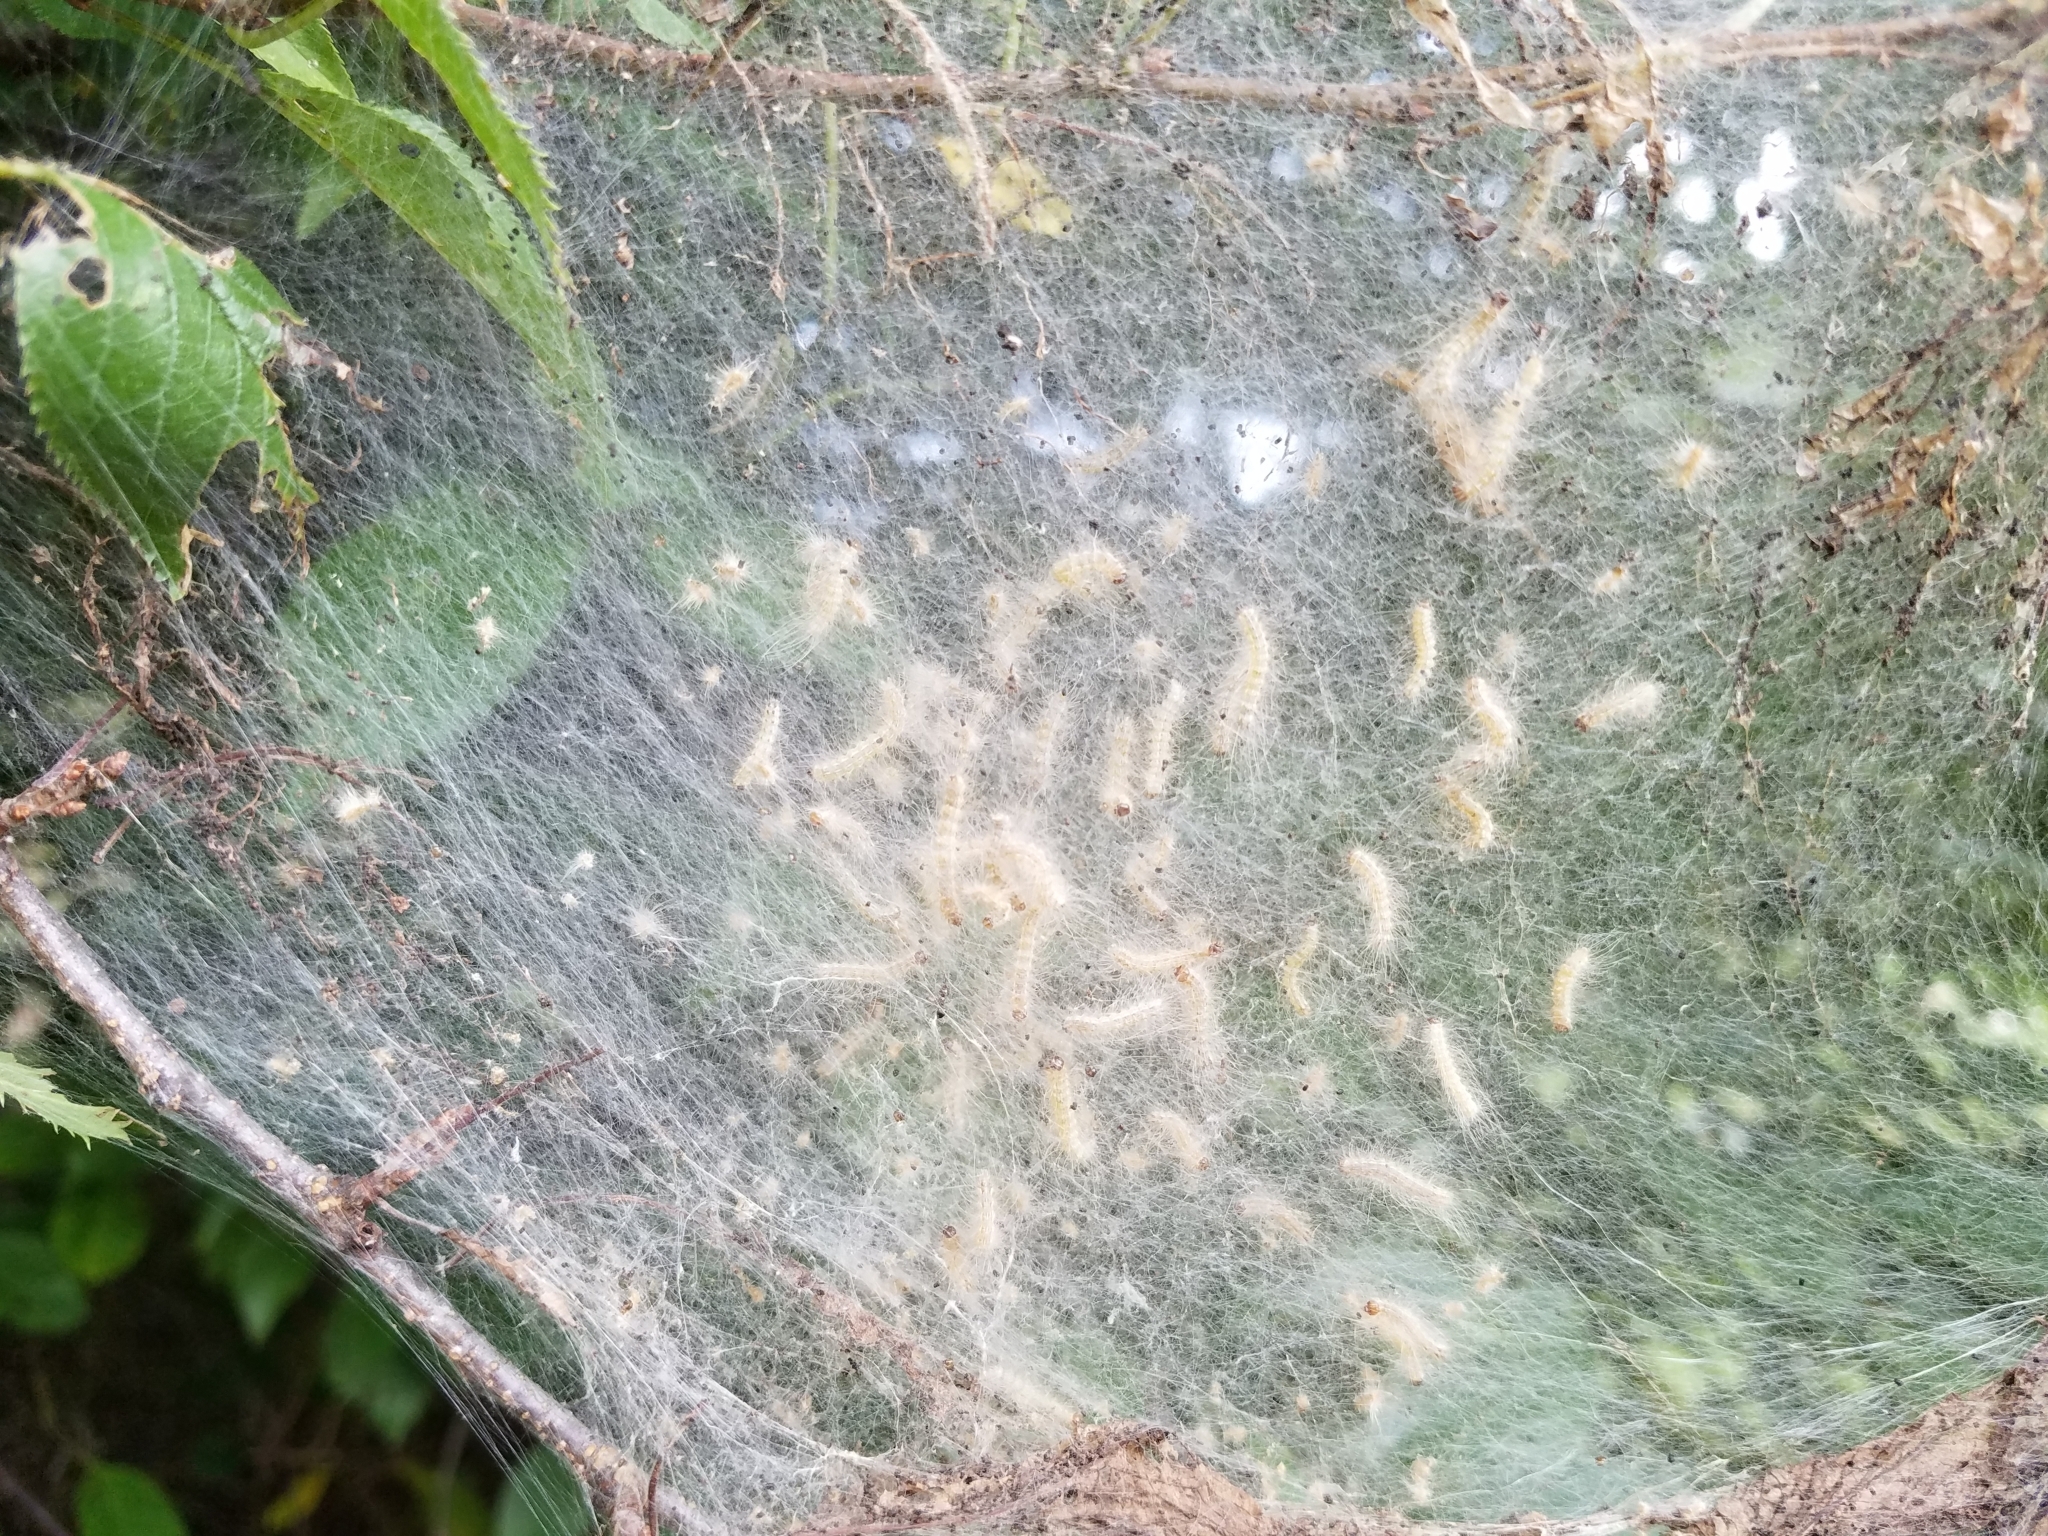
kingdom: Animalia
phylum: Arthropoda
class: Insecta
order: Lepidoptera
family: Erebidae
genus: Hyphantria
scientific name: Hyphantria cunea
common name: American white moth
